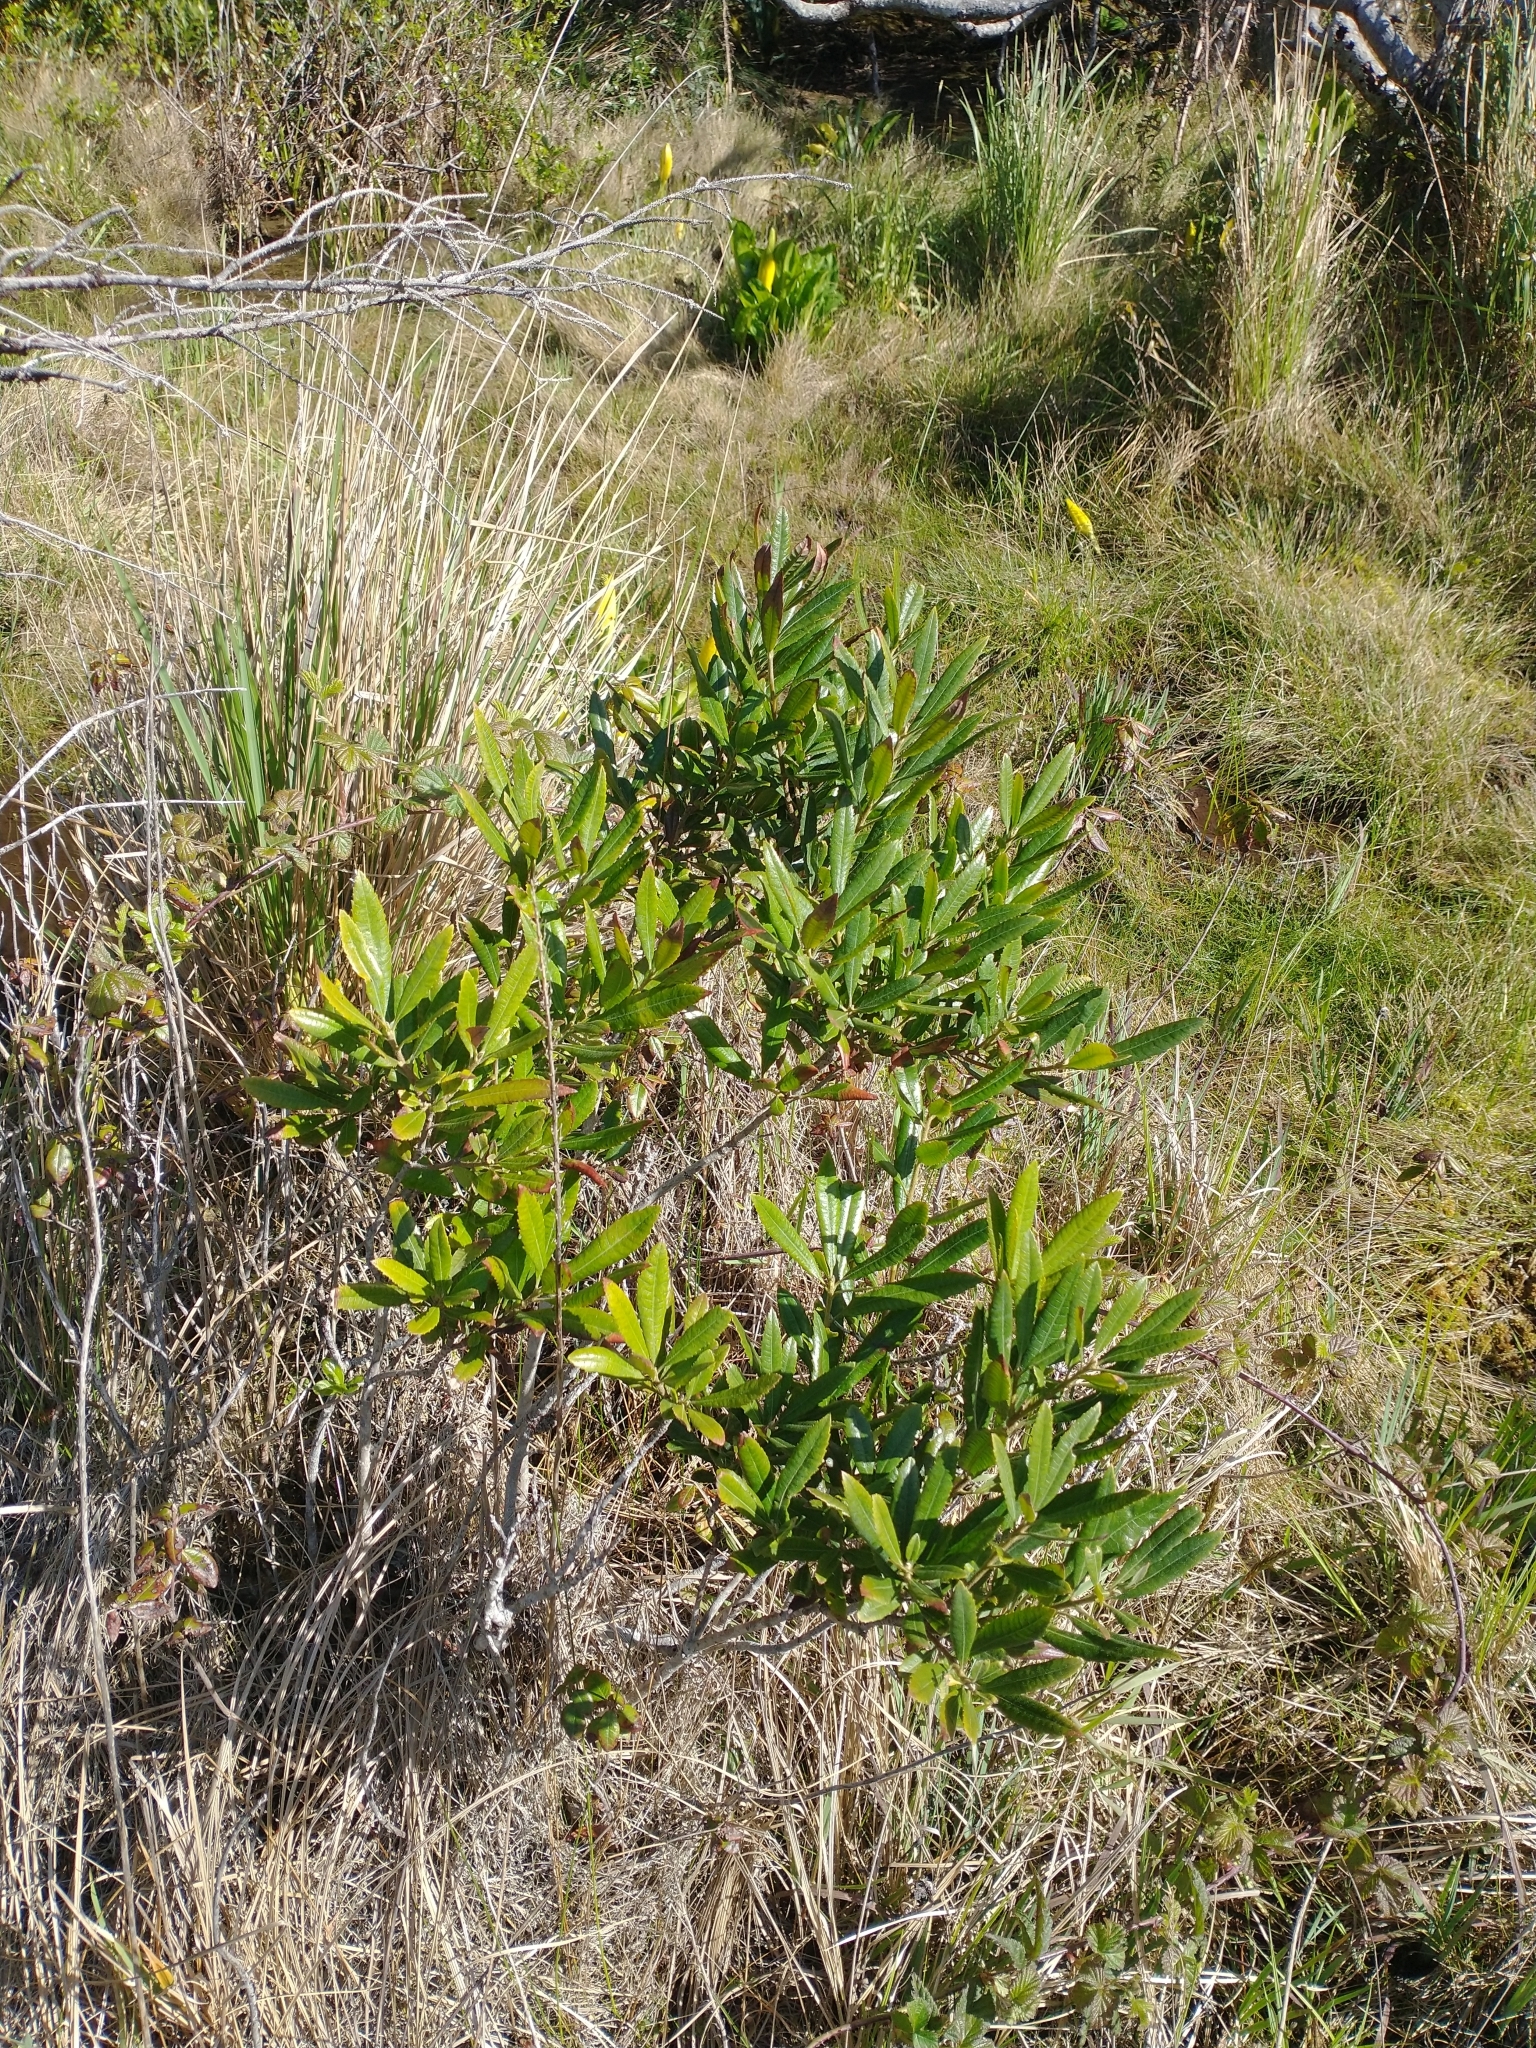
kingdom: Plantae
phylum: Tracheophyta
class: Magnoliopsida
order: Fagales
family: Myricaceae
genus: Morella
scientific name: Morella californica
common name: California wax-myrtle
